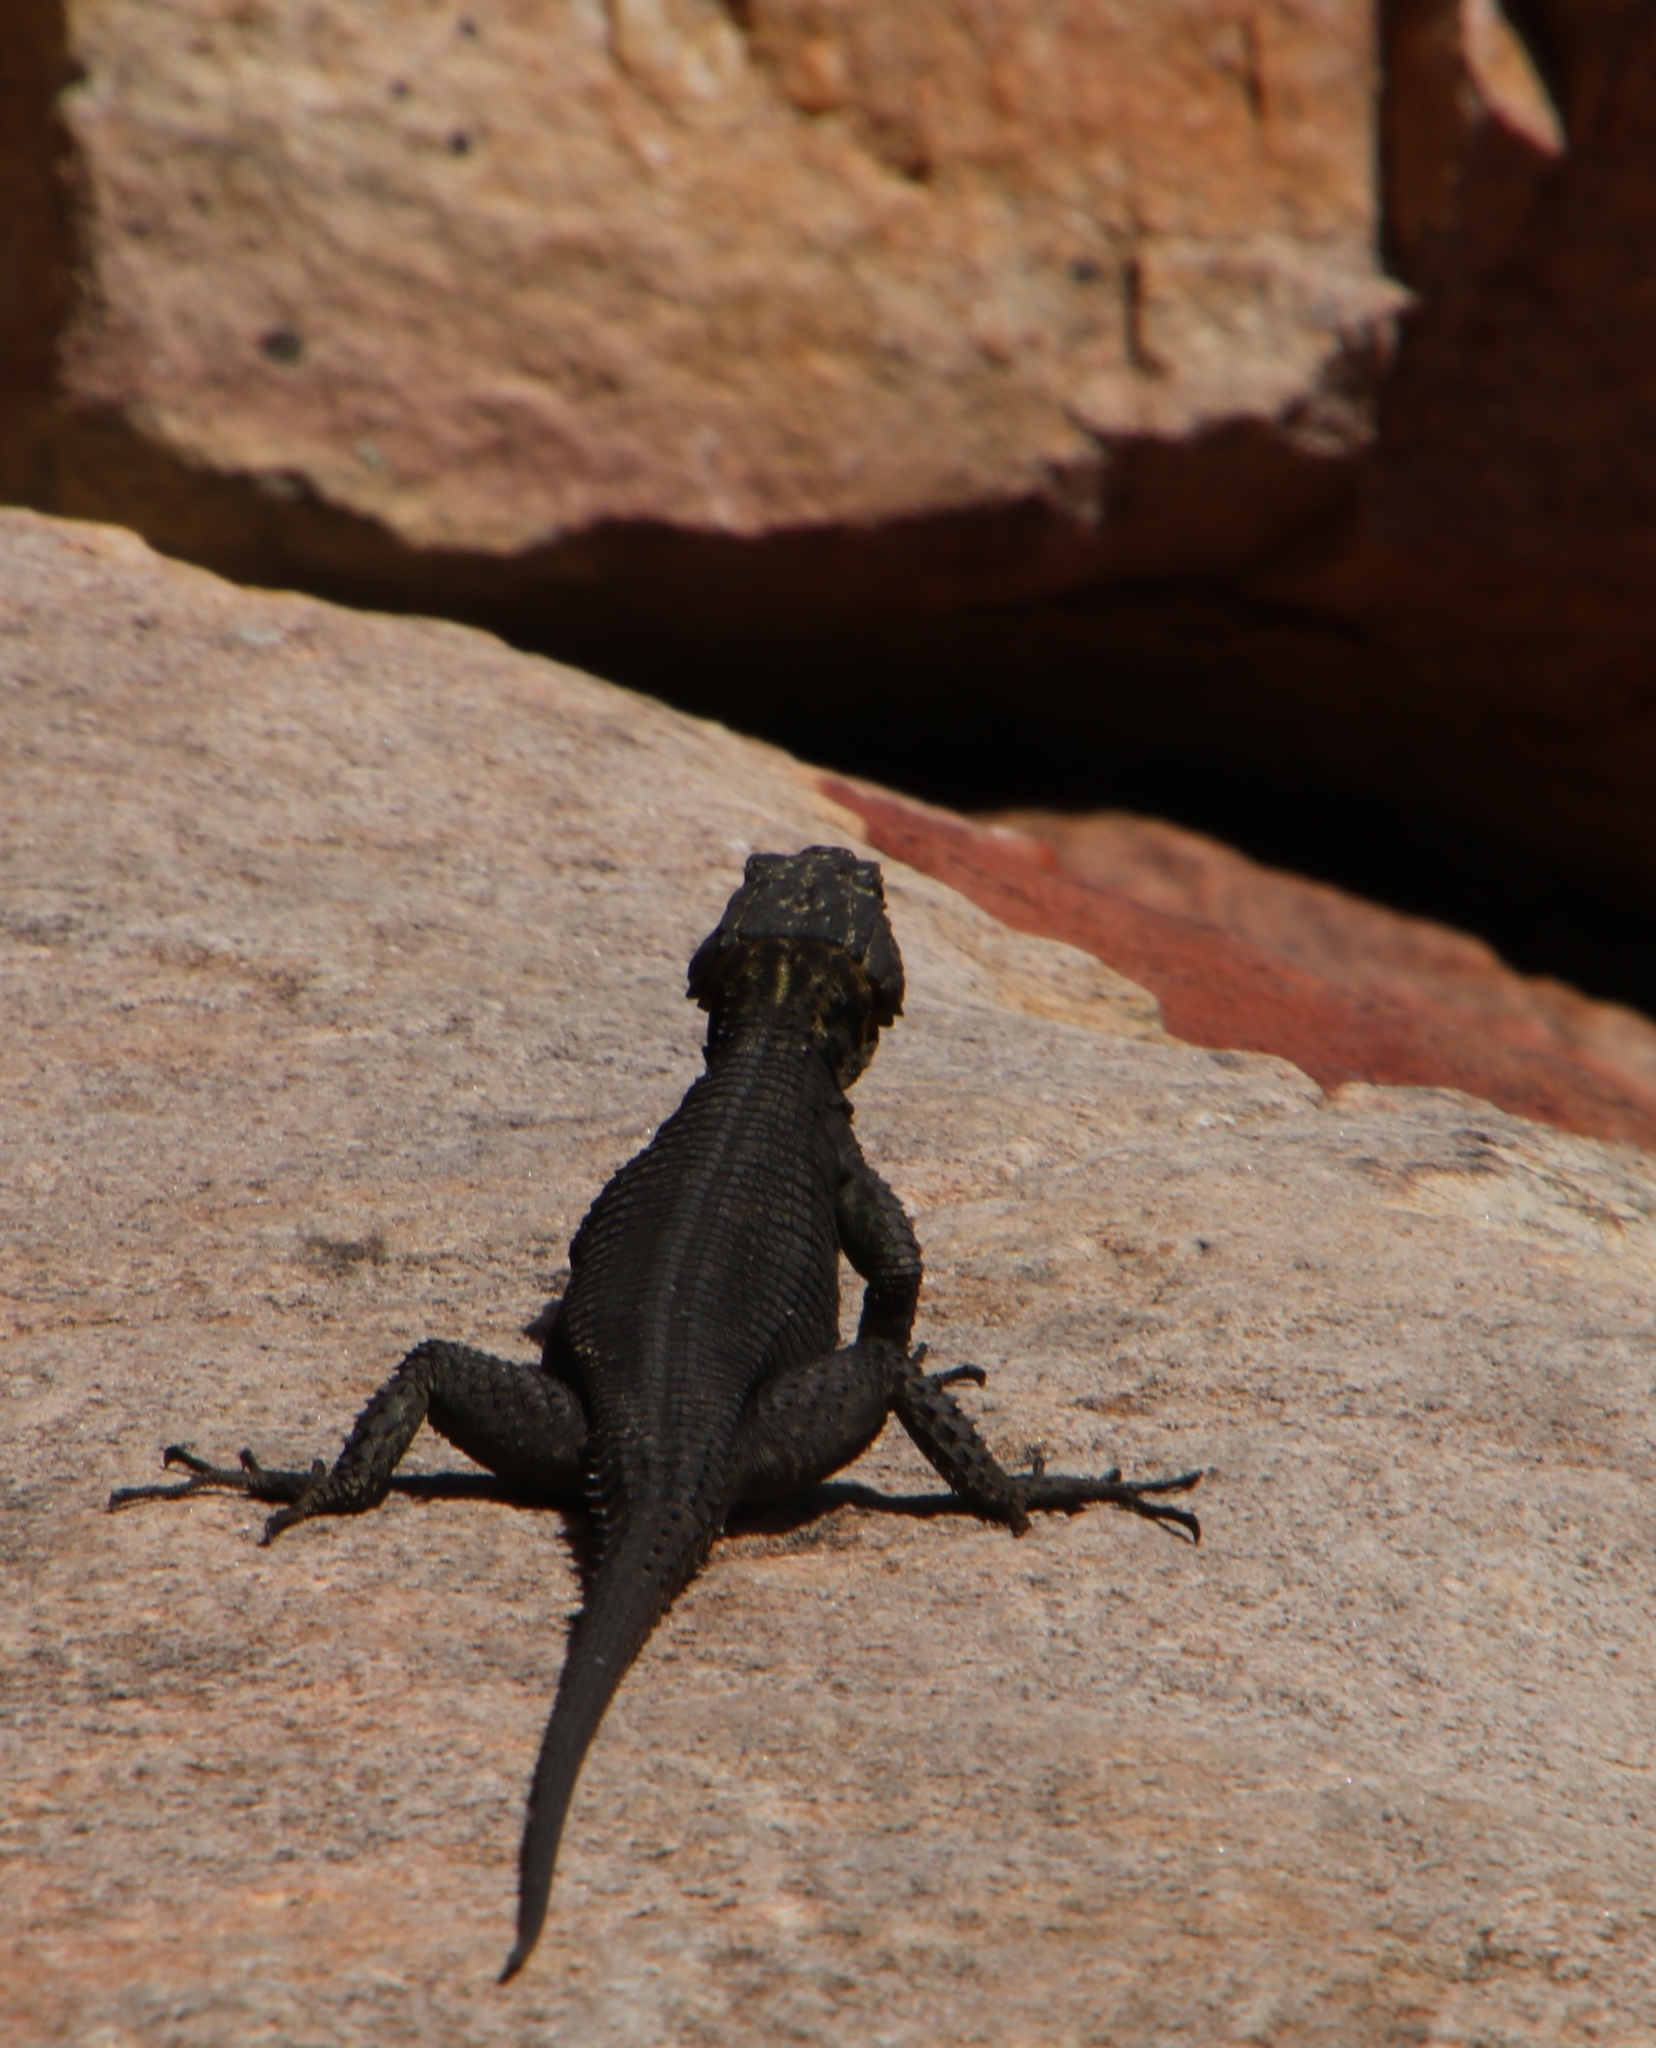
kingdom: Animalia
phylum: Chordata
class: Squamata
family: Cordylidae
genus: Hemicordylus
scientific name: Hemicordylus capensis
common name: Graceful crag lizard
